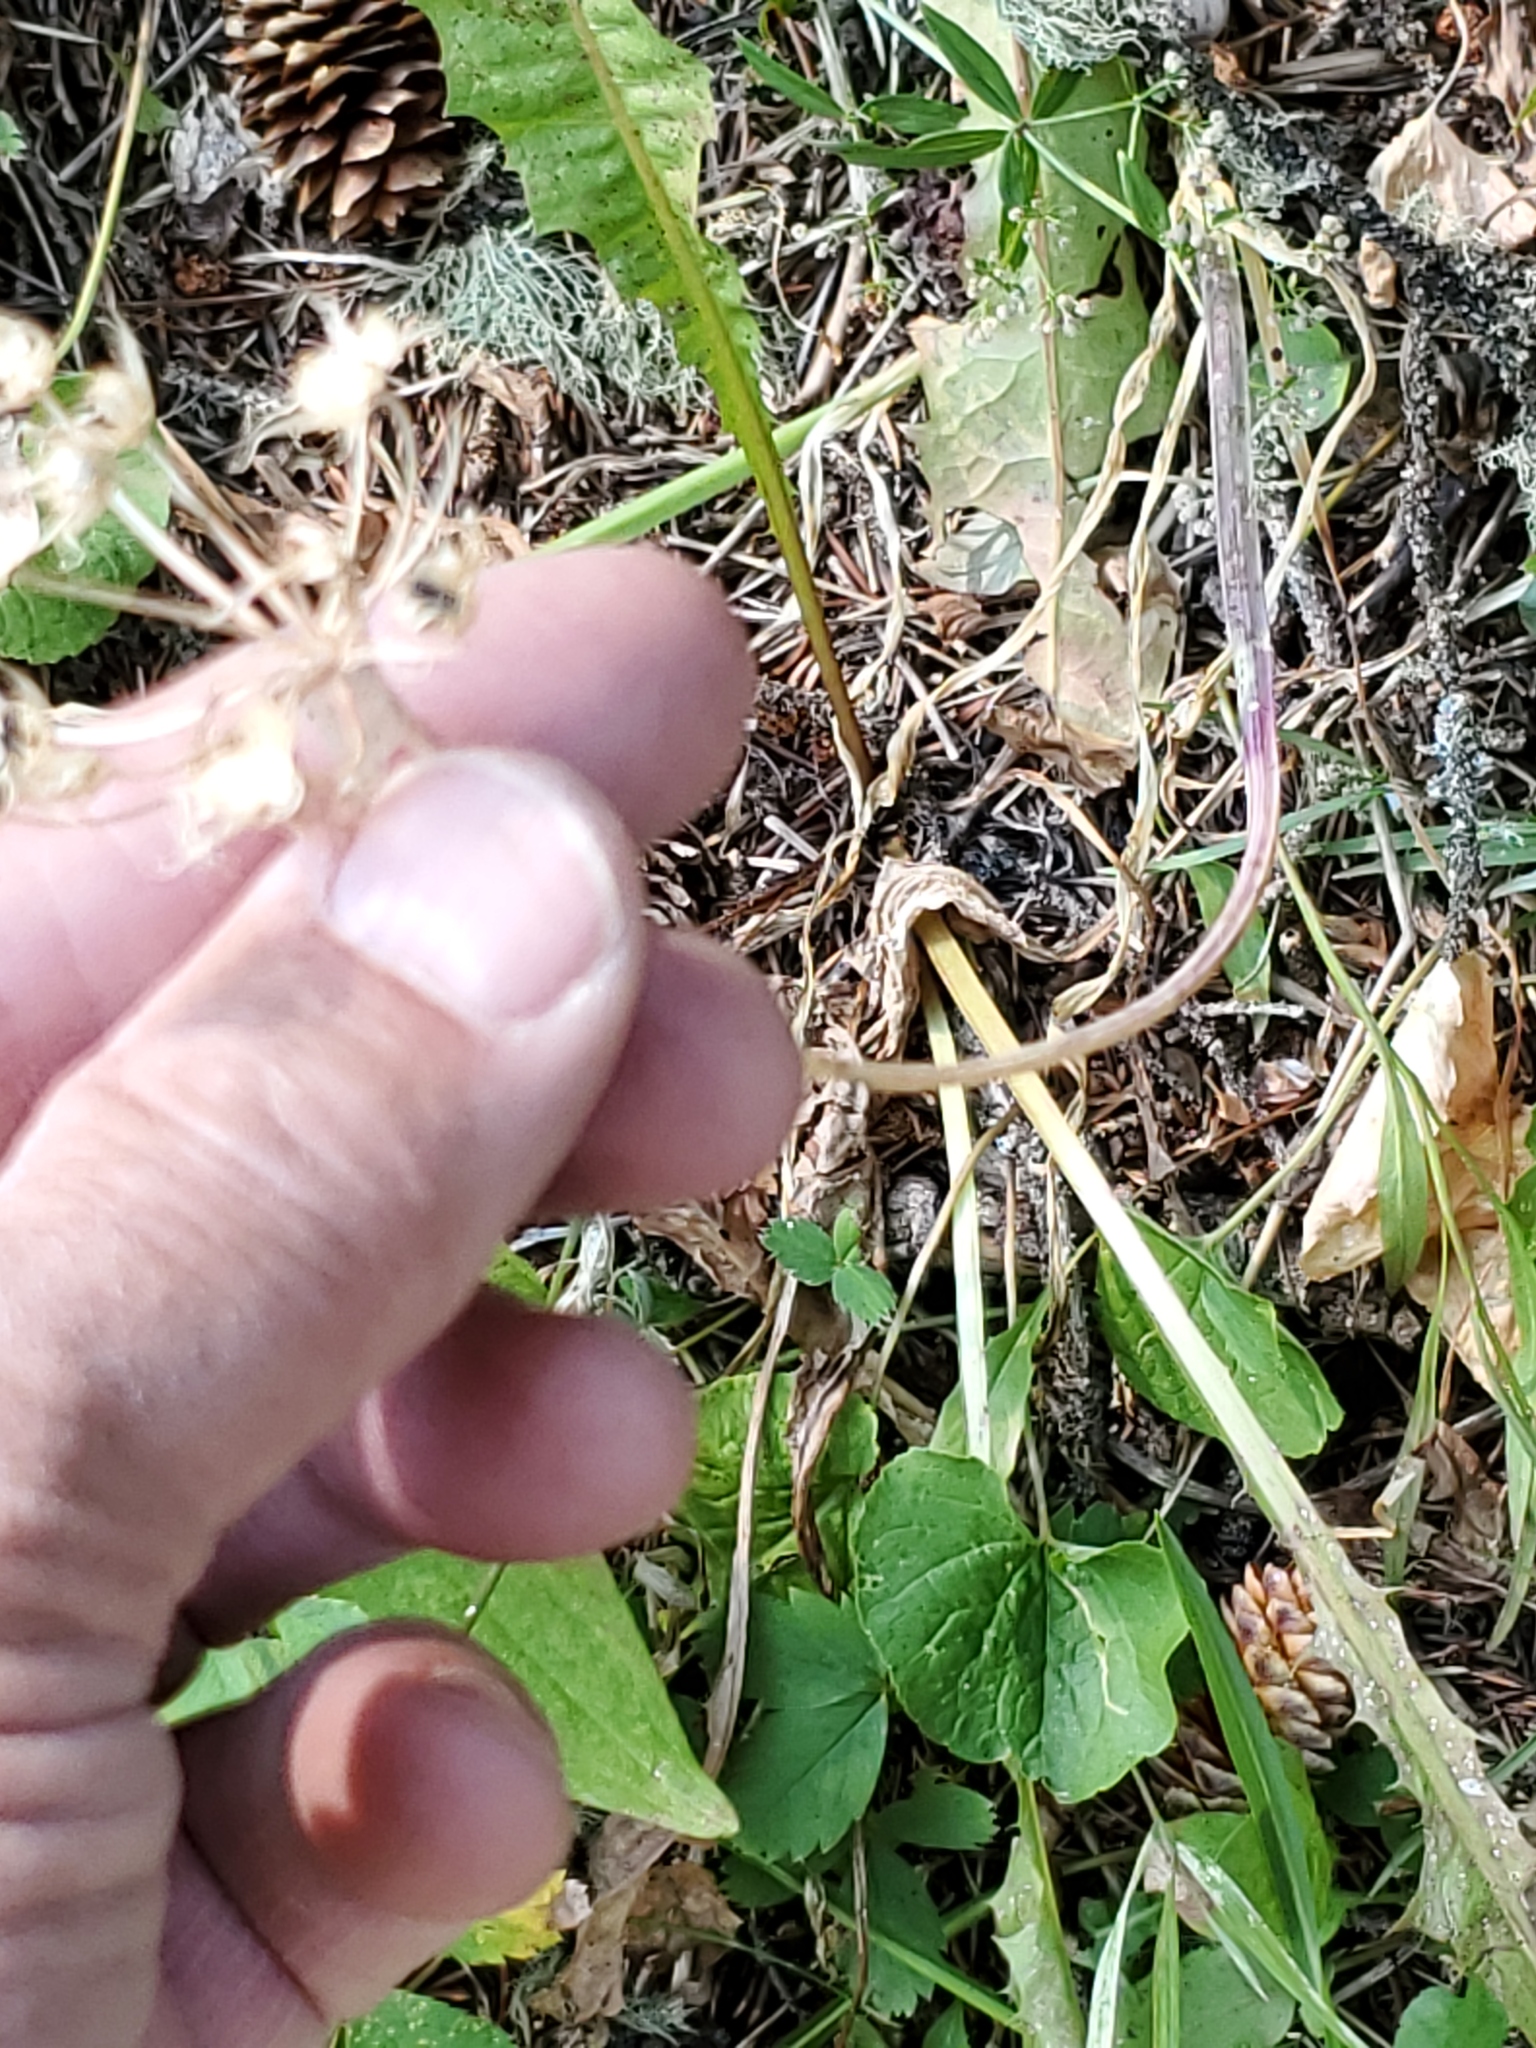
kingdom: Plantae
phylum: Tracheophyta
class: Liliopsida
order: Asparagales
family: Amaryllidaceae
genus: Allium
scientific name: Allium brevistylum
